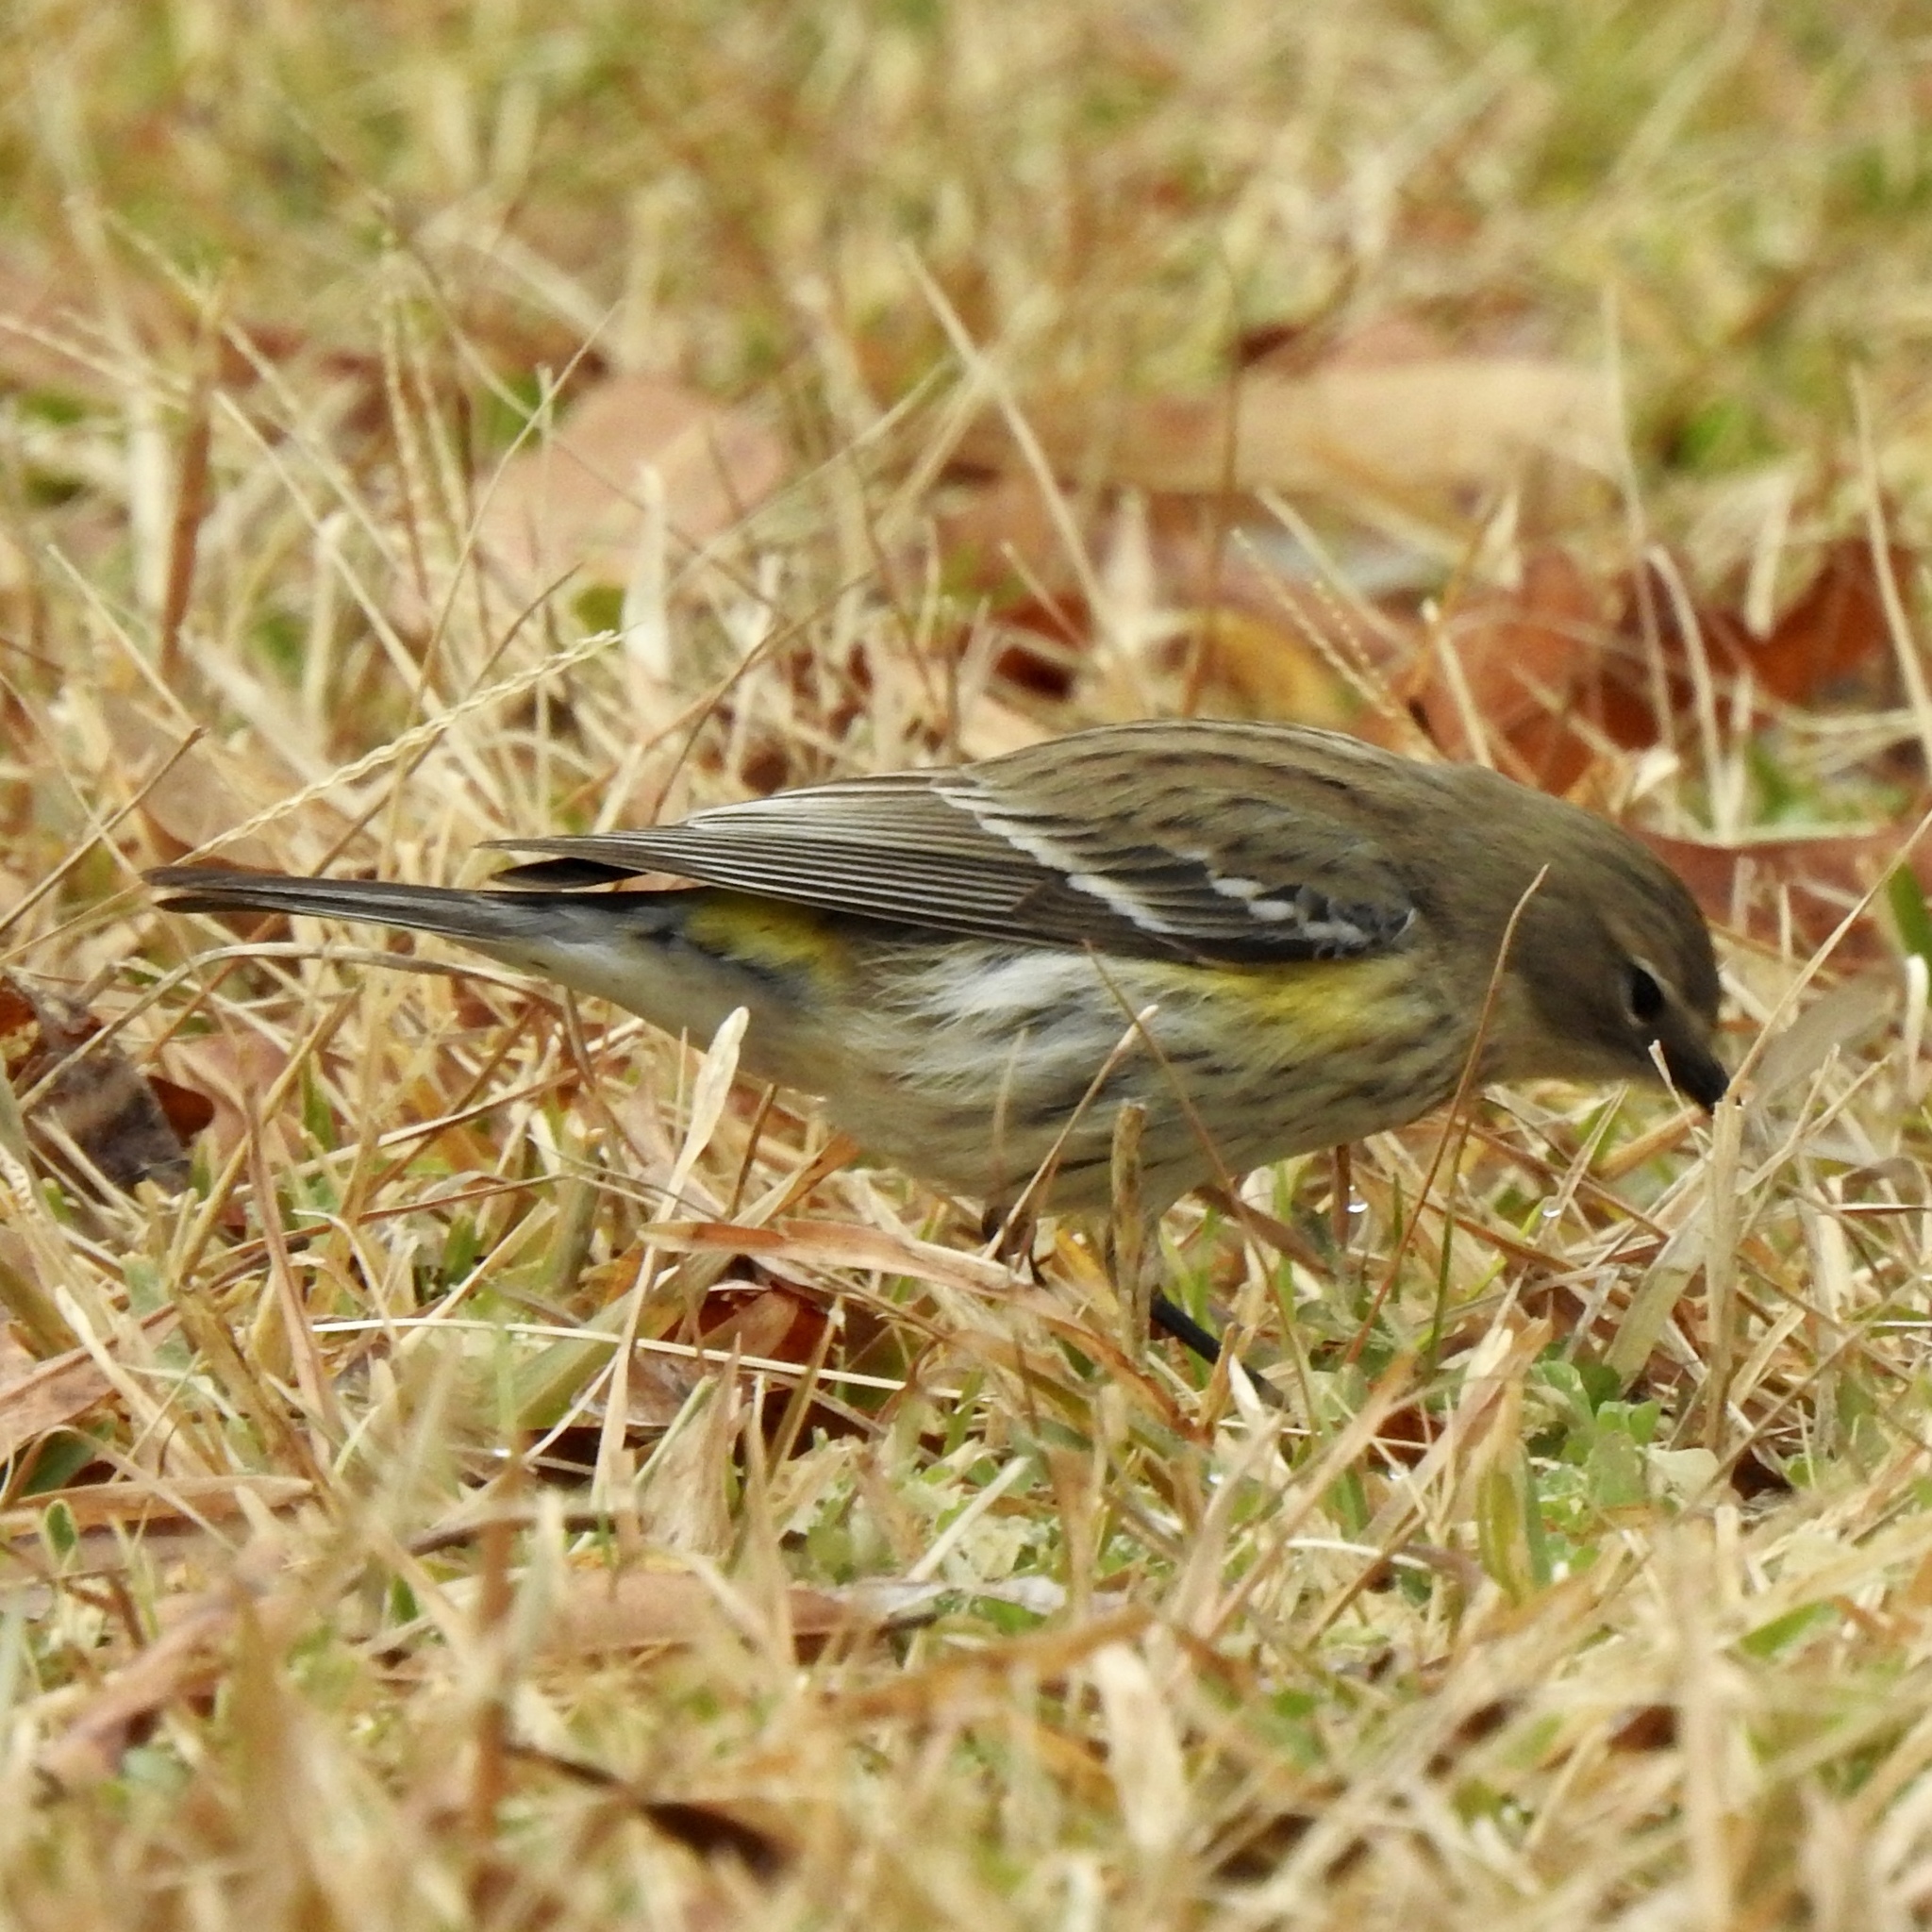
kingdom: Animalia
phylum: Chordata
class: Aves
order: Passeriformes
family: Parulidae
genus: Setophaga
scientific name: Setophaga coronata
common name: Myrtle warbler
